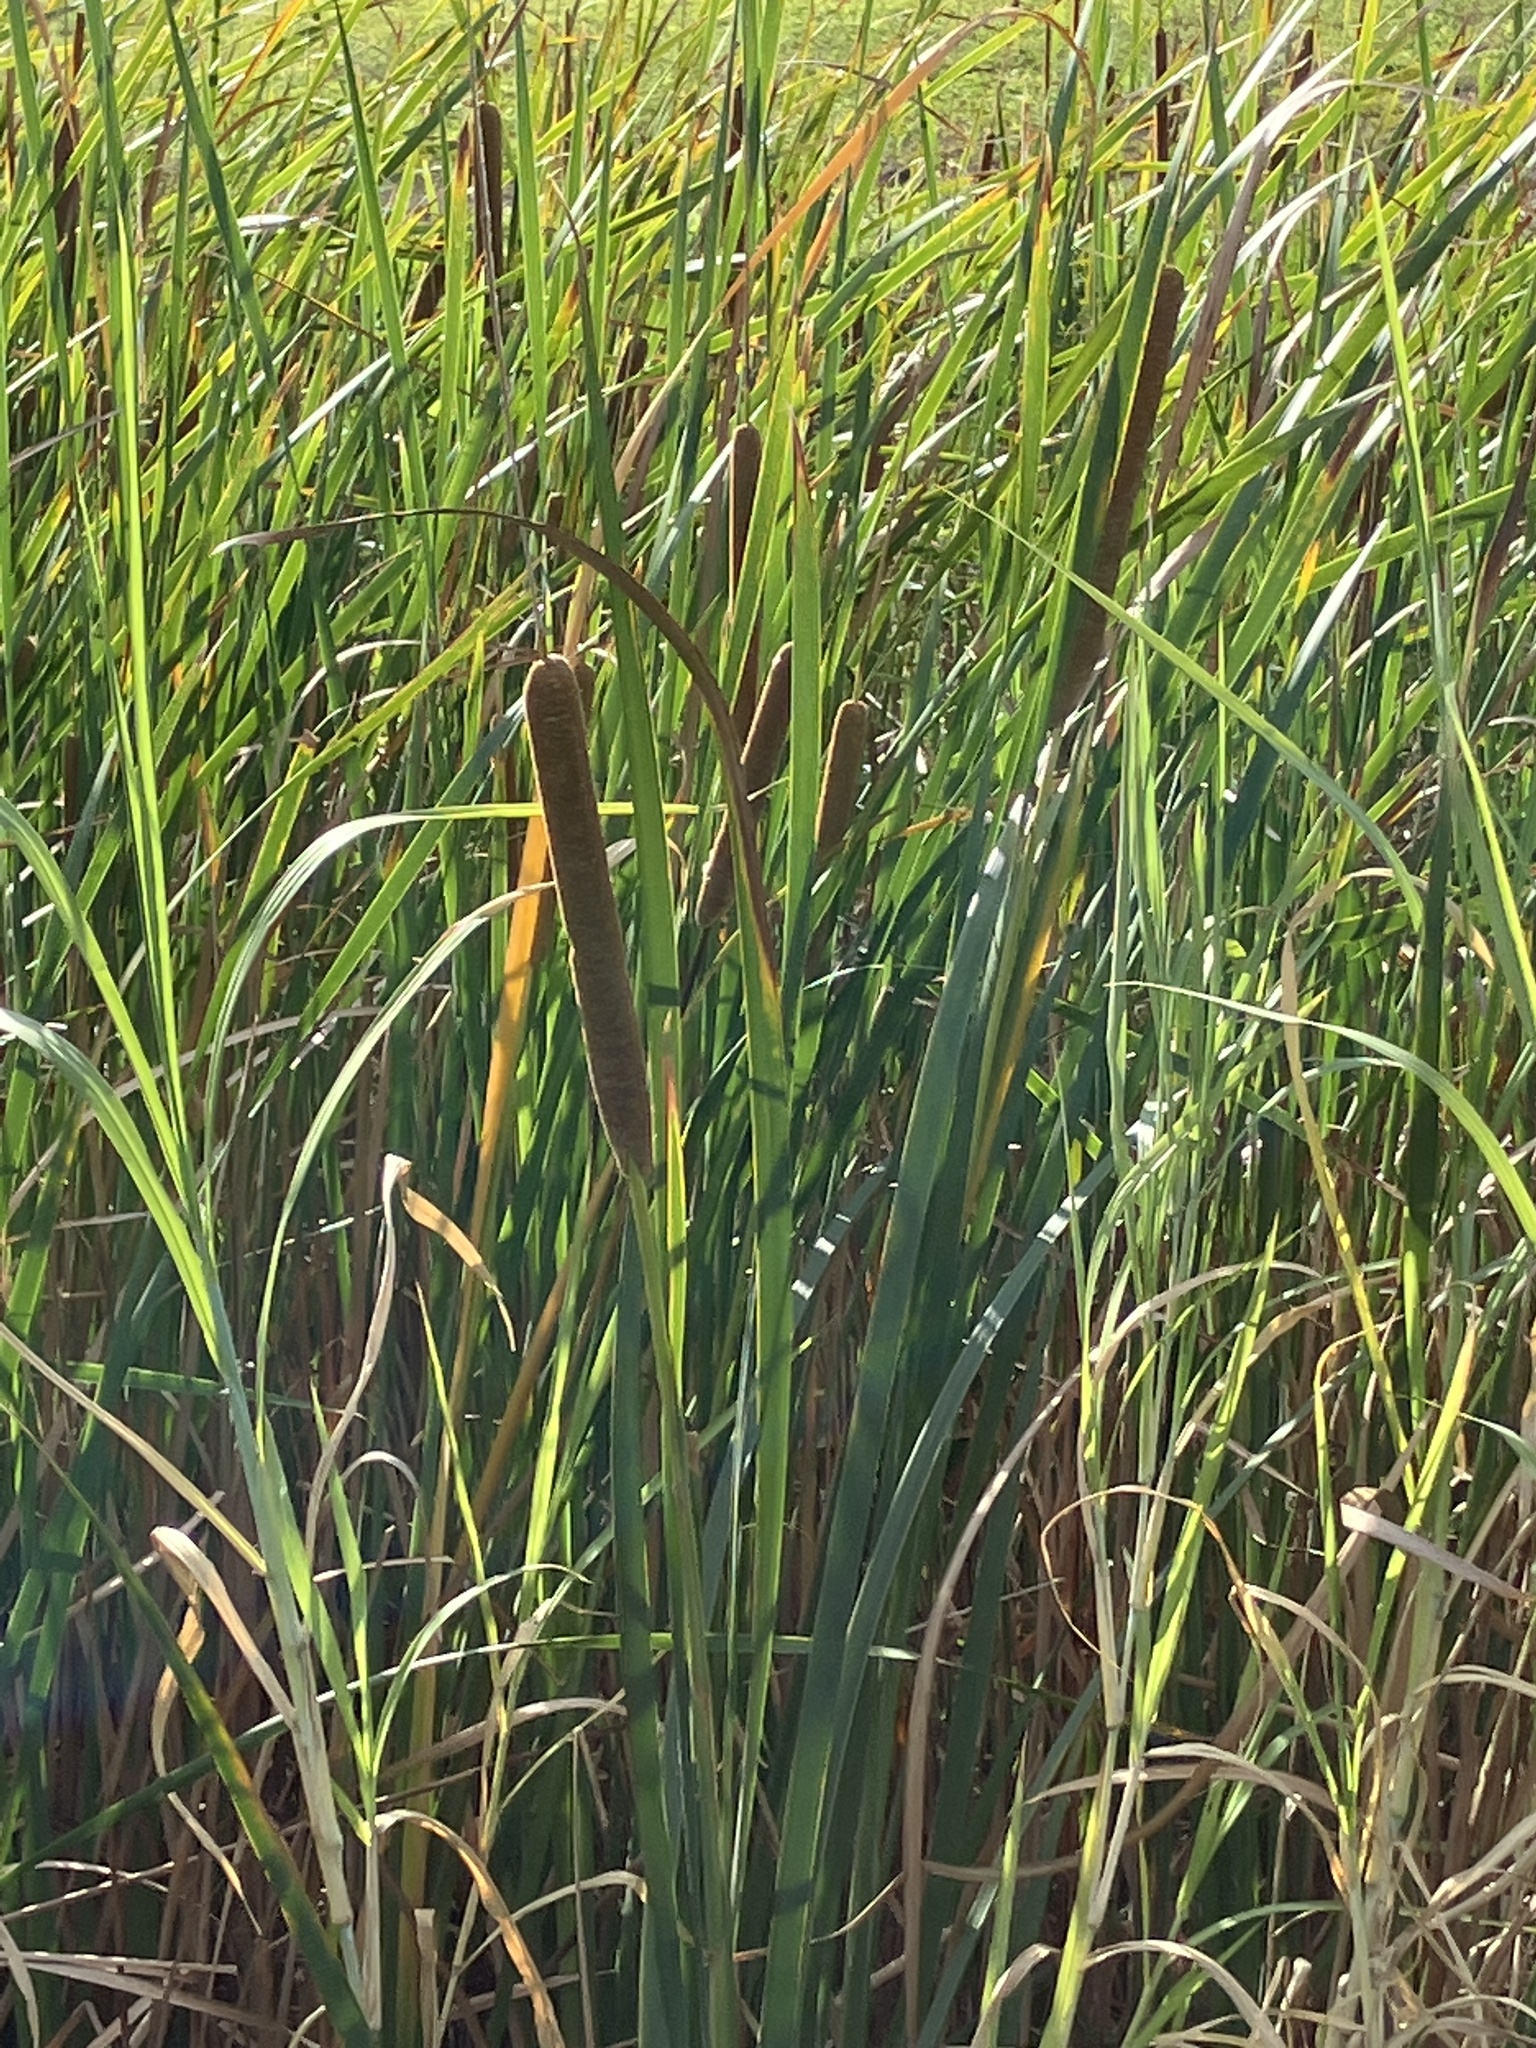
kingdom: Plantae
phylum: Tracheophyta
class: Liliopsida
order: Poales
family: Typhaceae
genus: Typha
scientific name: Typha domingensis
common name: Southern cattail
